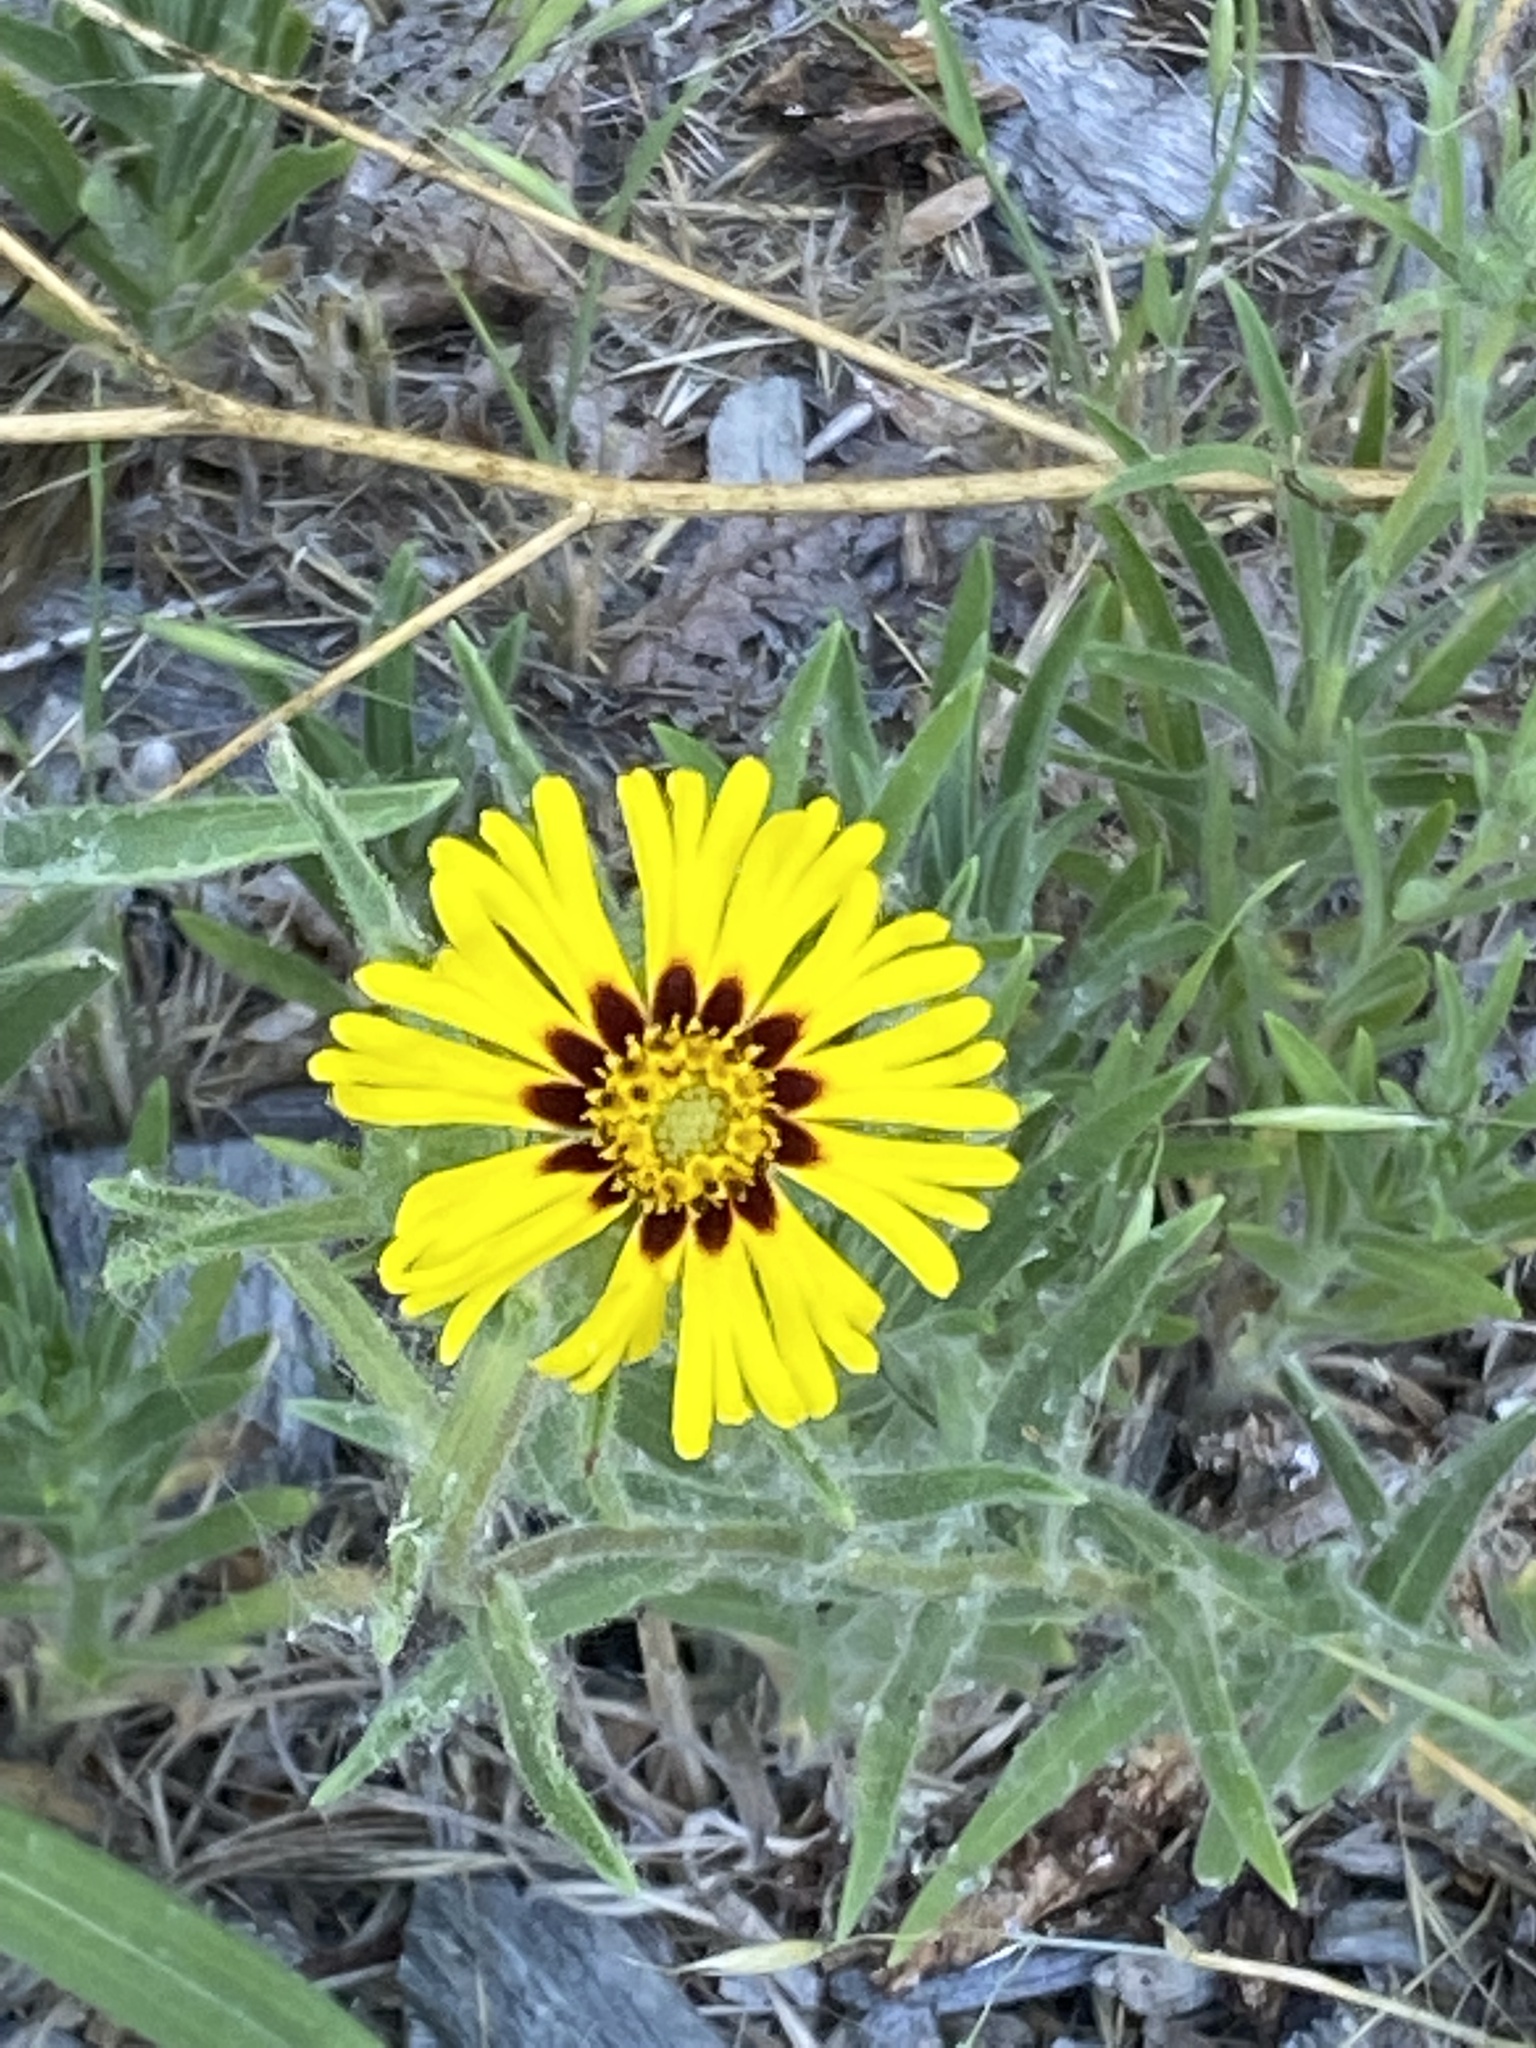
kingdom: Plantae
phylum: Tracheophyta
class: Magnoliopsida
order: Asterales
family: Asteraceae
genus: Madia
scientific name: Madia elegans
